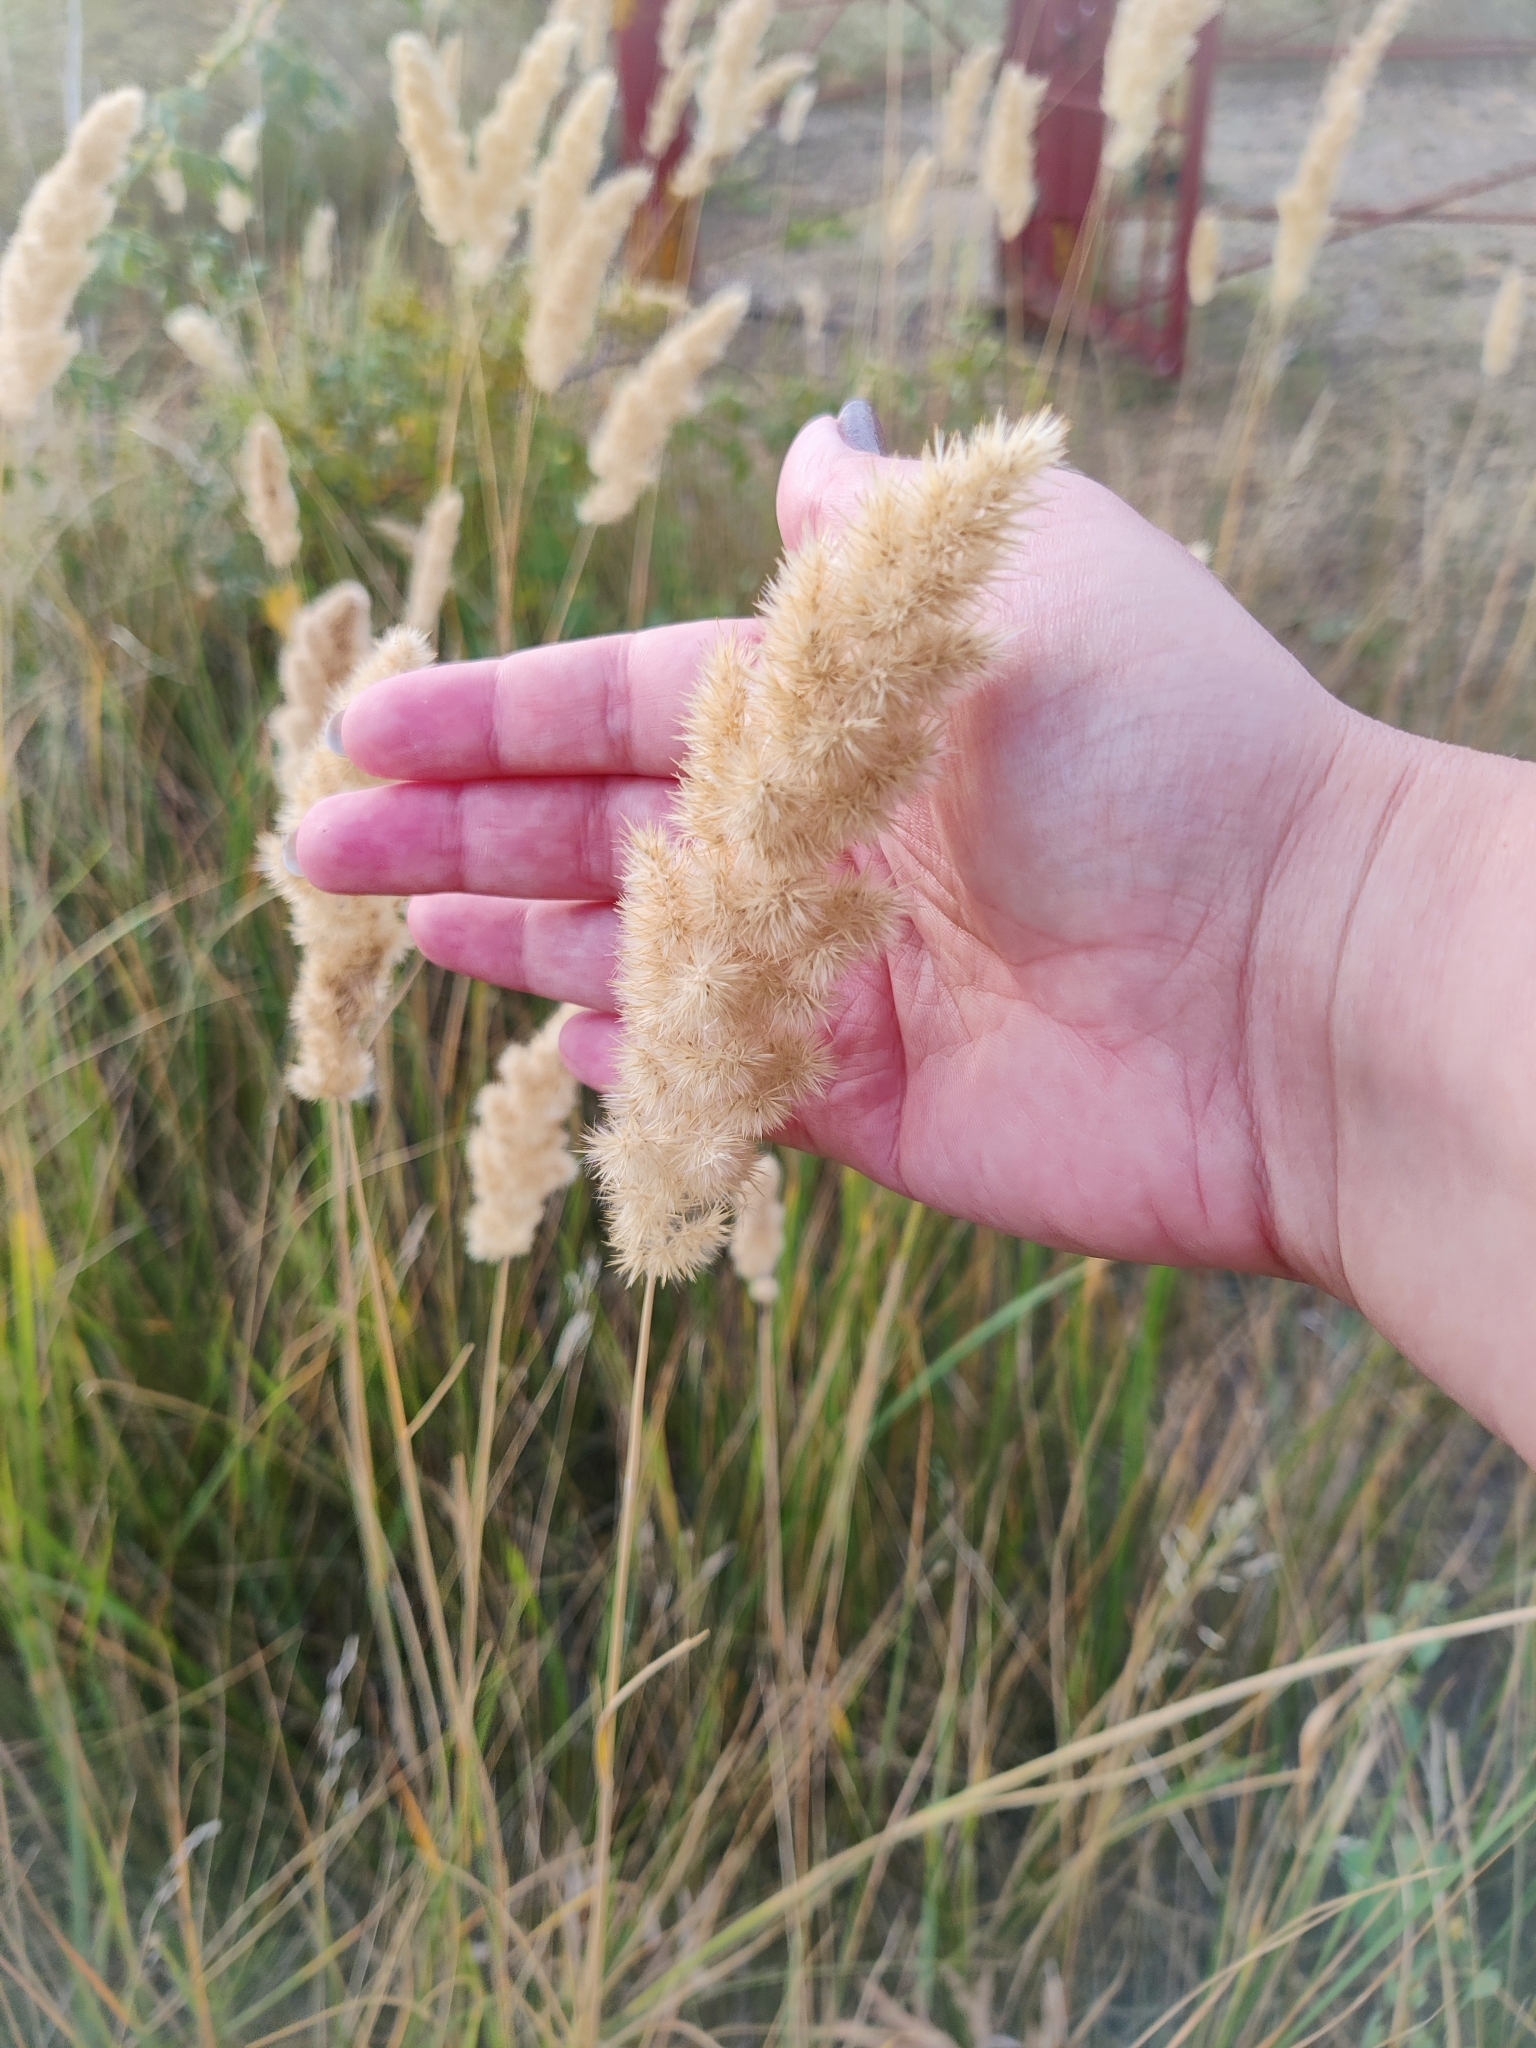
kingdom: Plantae
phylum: Tracheophyta
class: Liliopsida
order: Poales
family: Poaceae
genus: Calamagrostis
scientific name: Calamagrostis epigejos
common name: Wood small-reed
